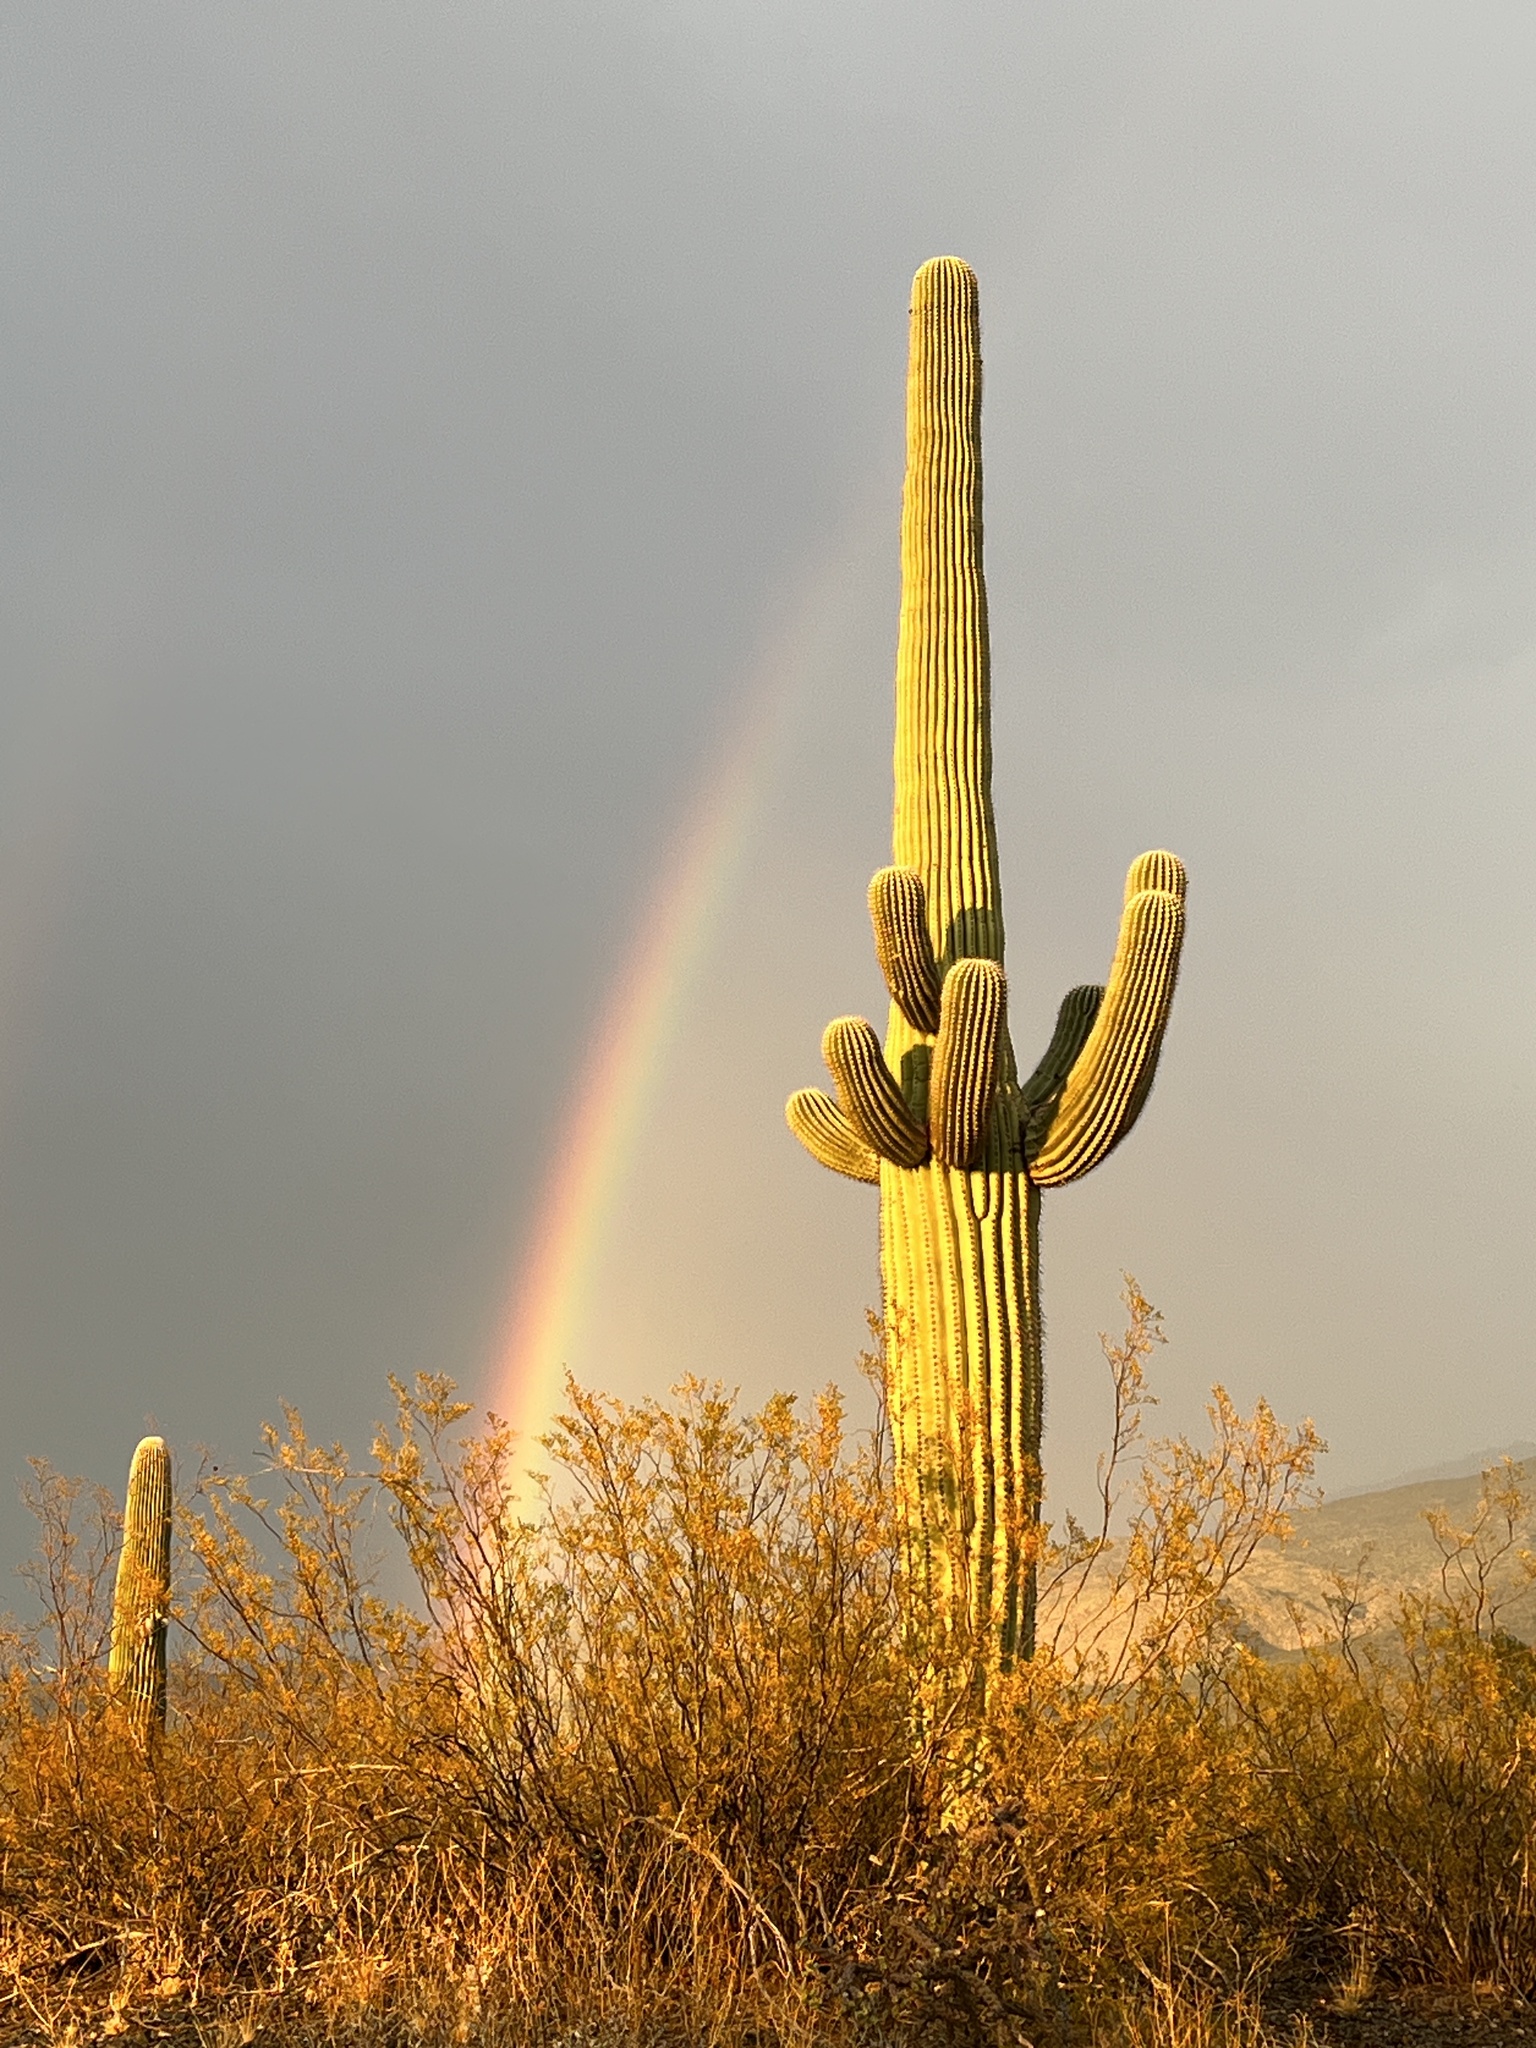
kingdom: Plantae
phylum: Tracheophyta
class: Magnoliopsida
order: Caryophyllales
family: Cactaceae
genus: Carnegiea
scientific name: Carnegiea gigantea
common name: Saguaro
